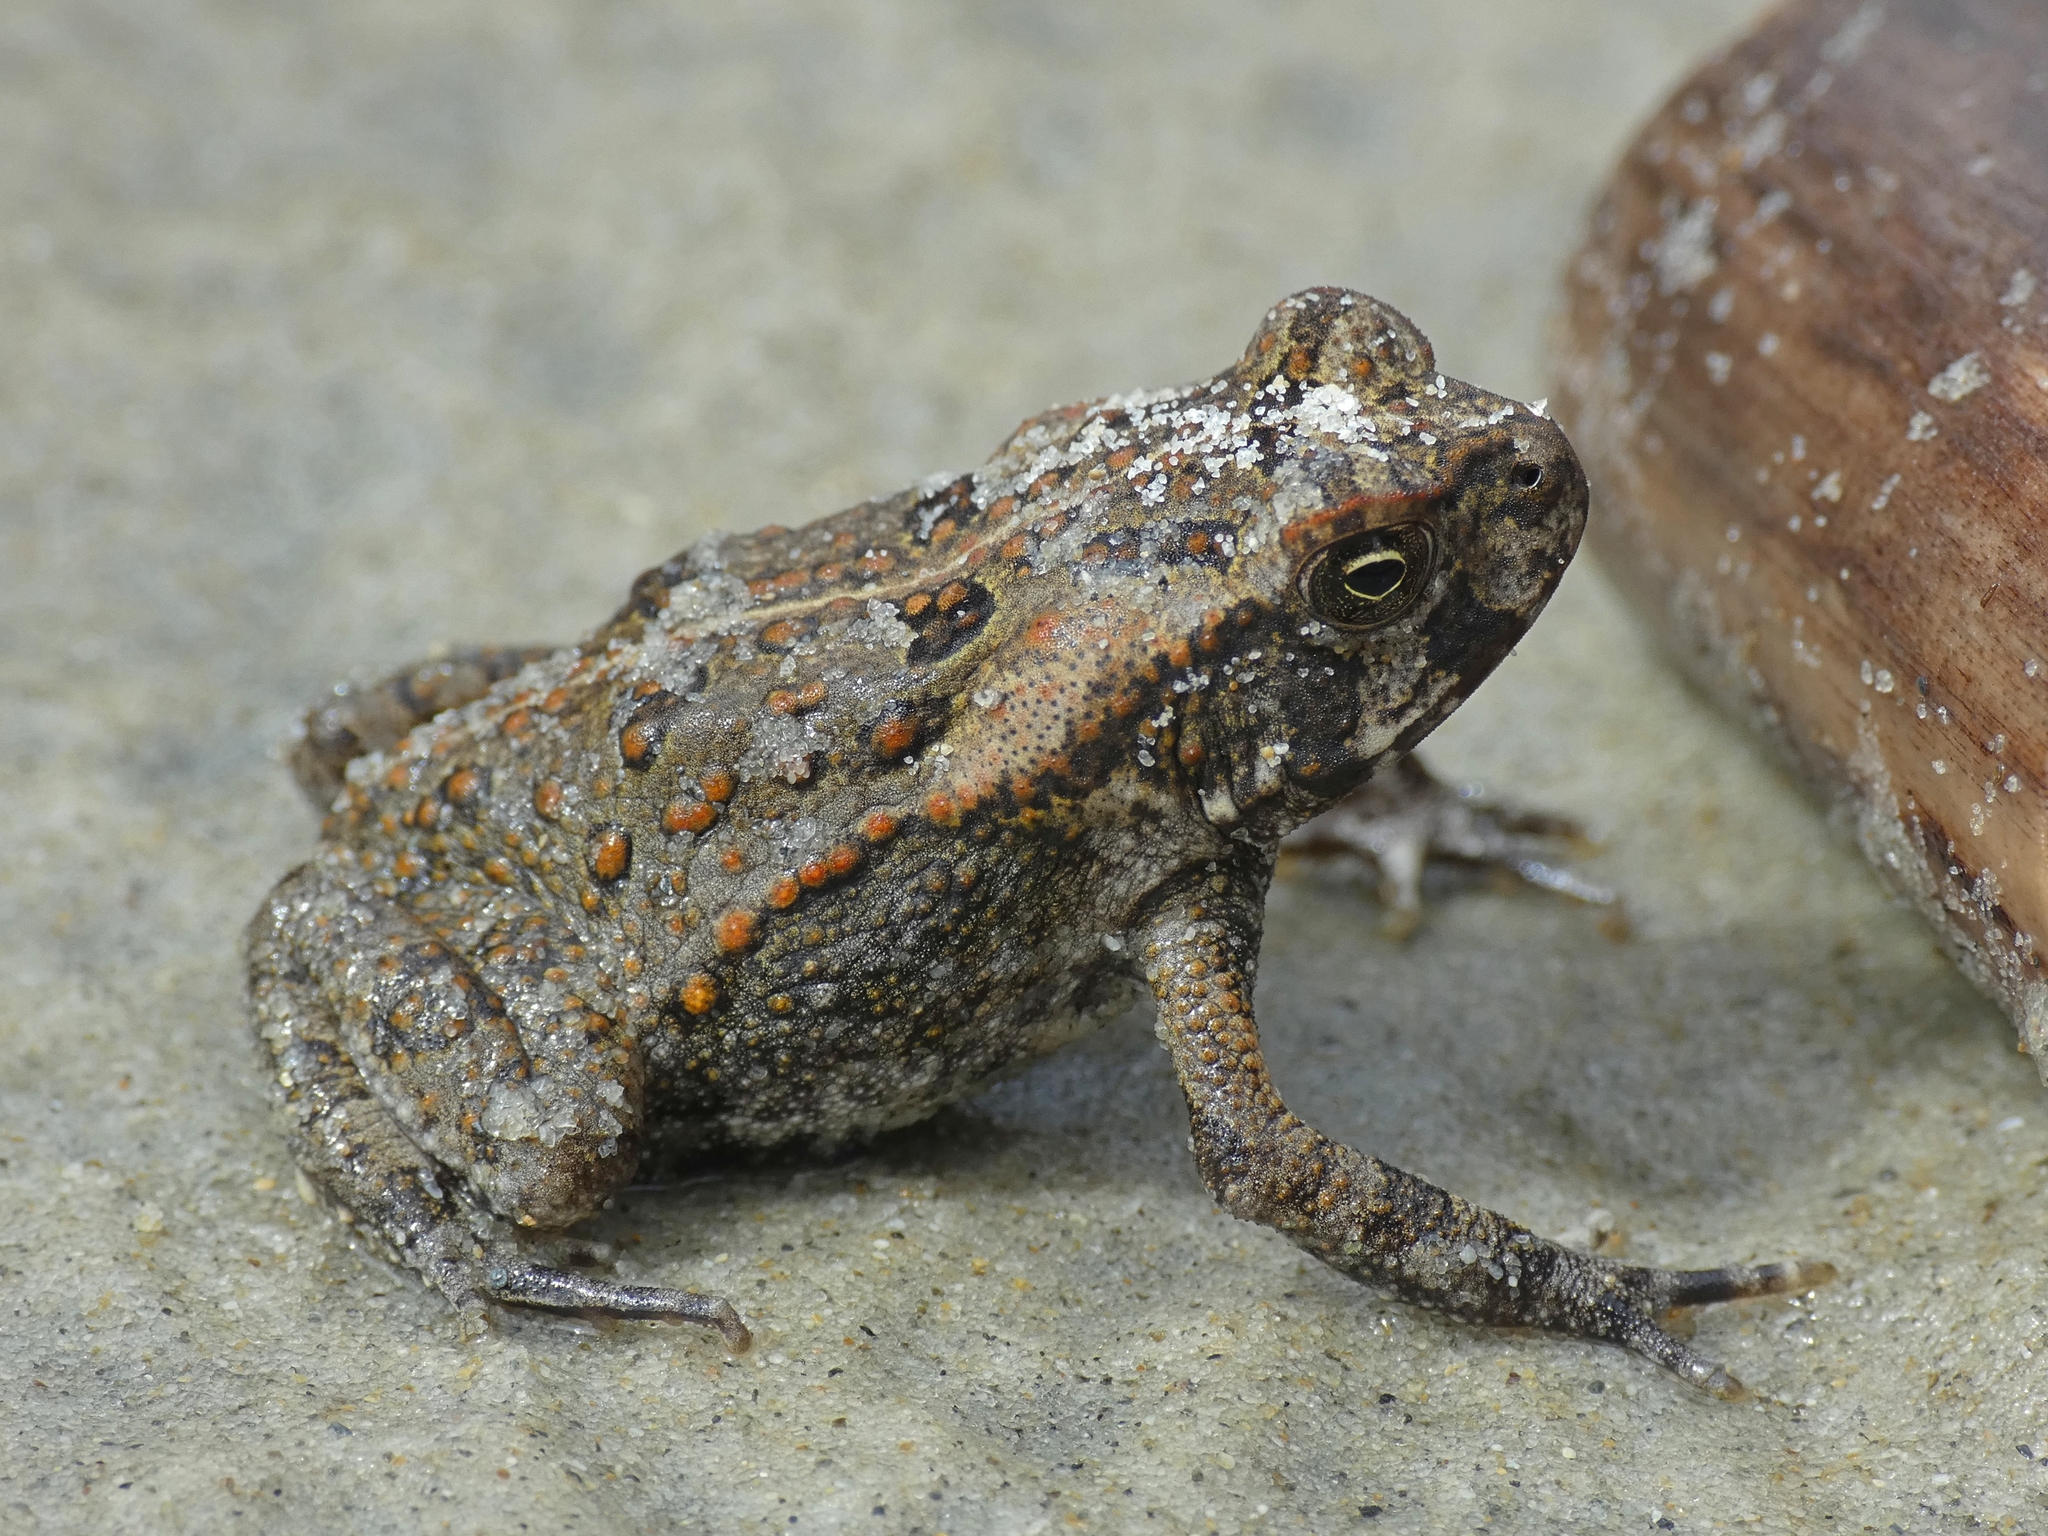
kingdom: Animalia
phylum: Chordata
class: Amphibia
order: Anura
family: Bufonidae
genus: Rhinella
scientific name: Rhinella marina
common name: Cane toad
